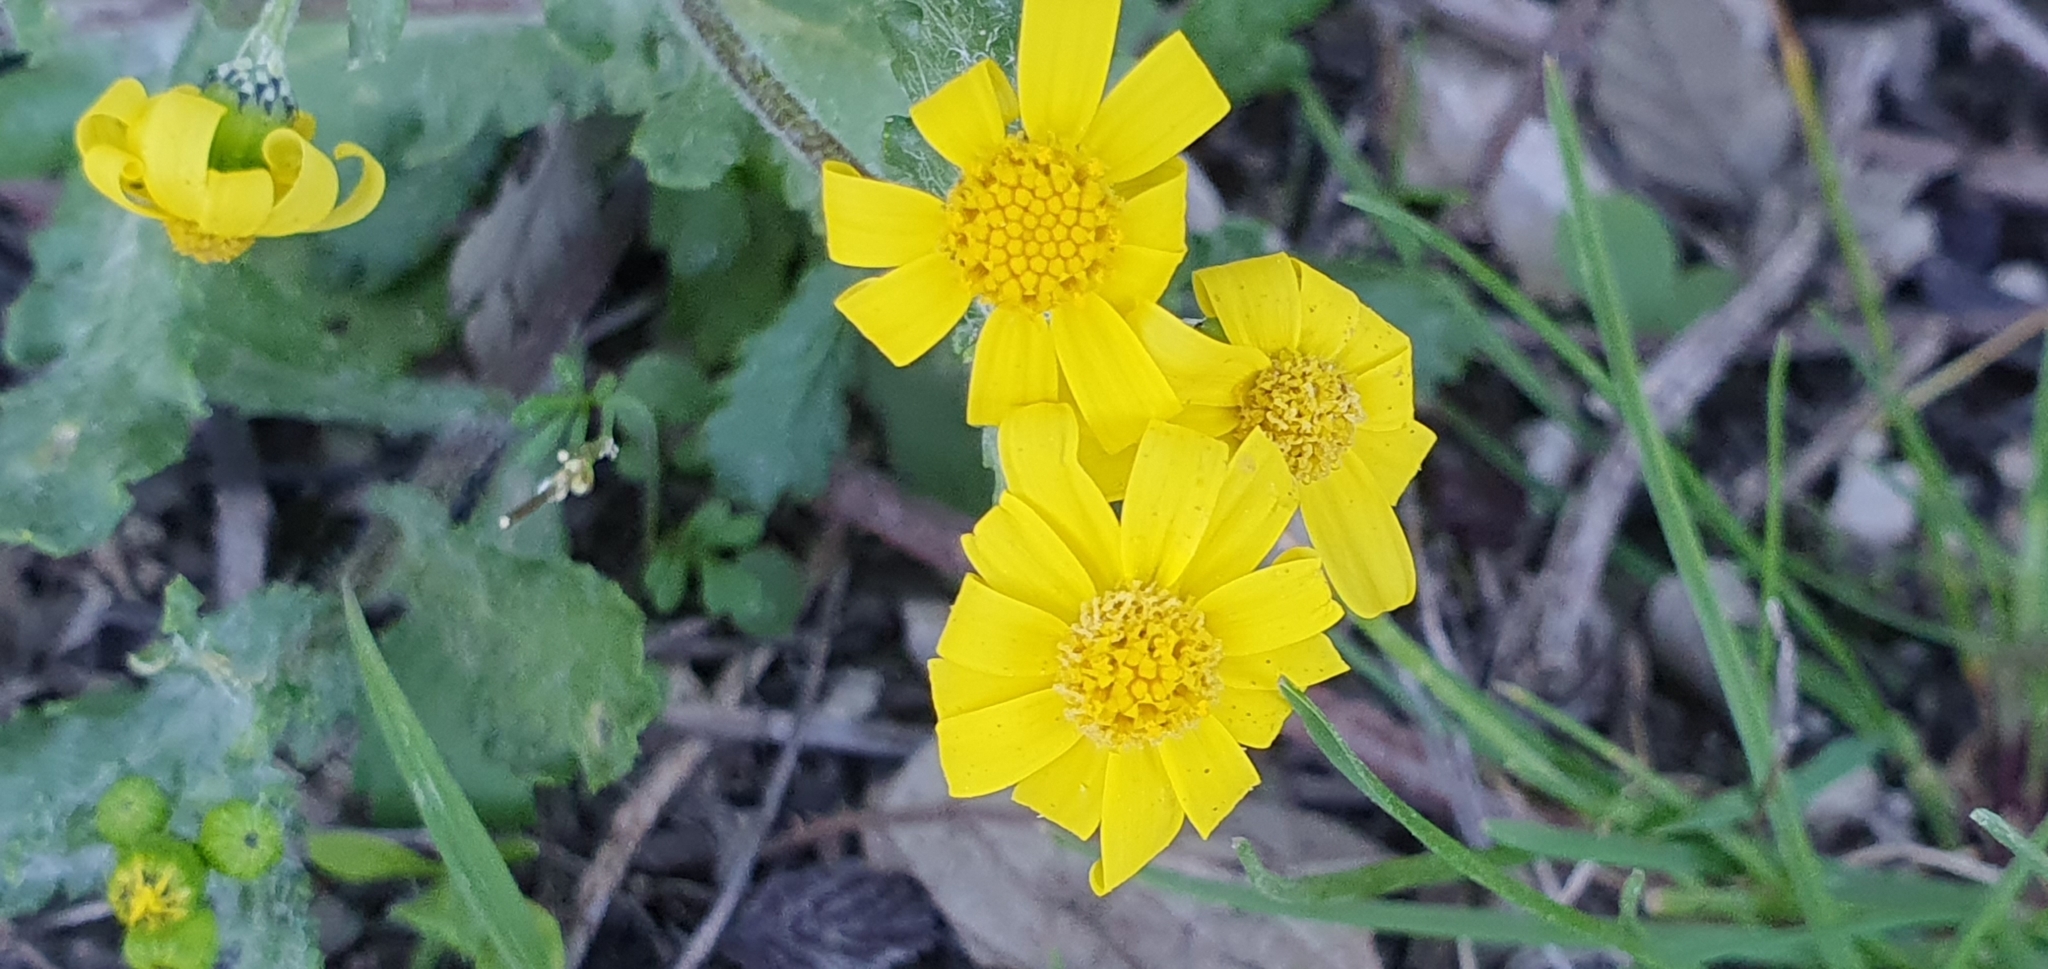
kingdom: Plantae
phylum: Tracheophyta
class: Magnoliopsida
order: Asterales
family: Asteraceae
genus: Senecio
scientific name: Senecio leucanthemifolius
